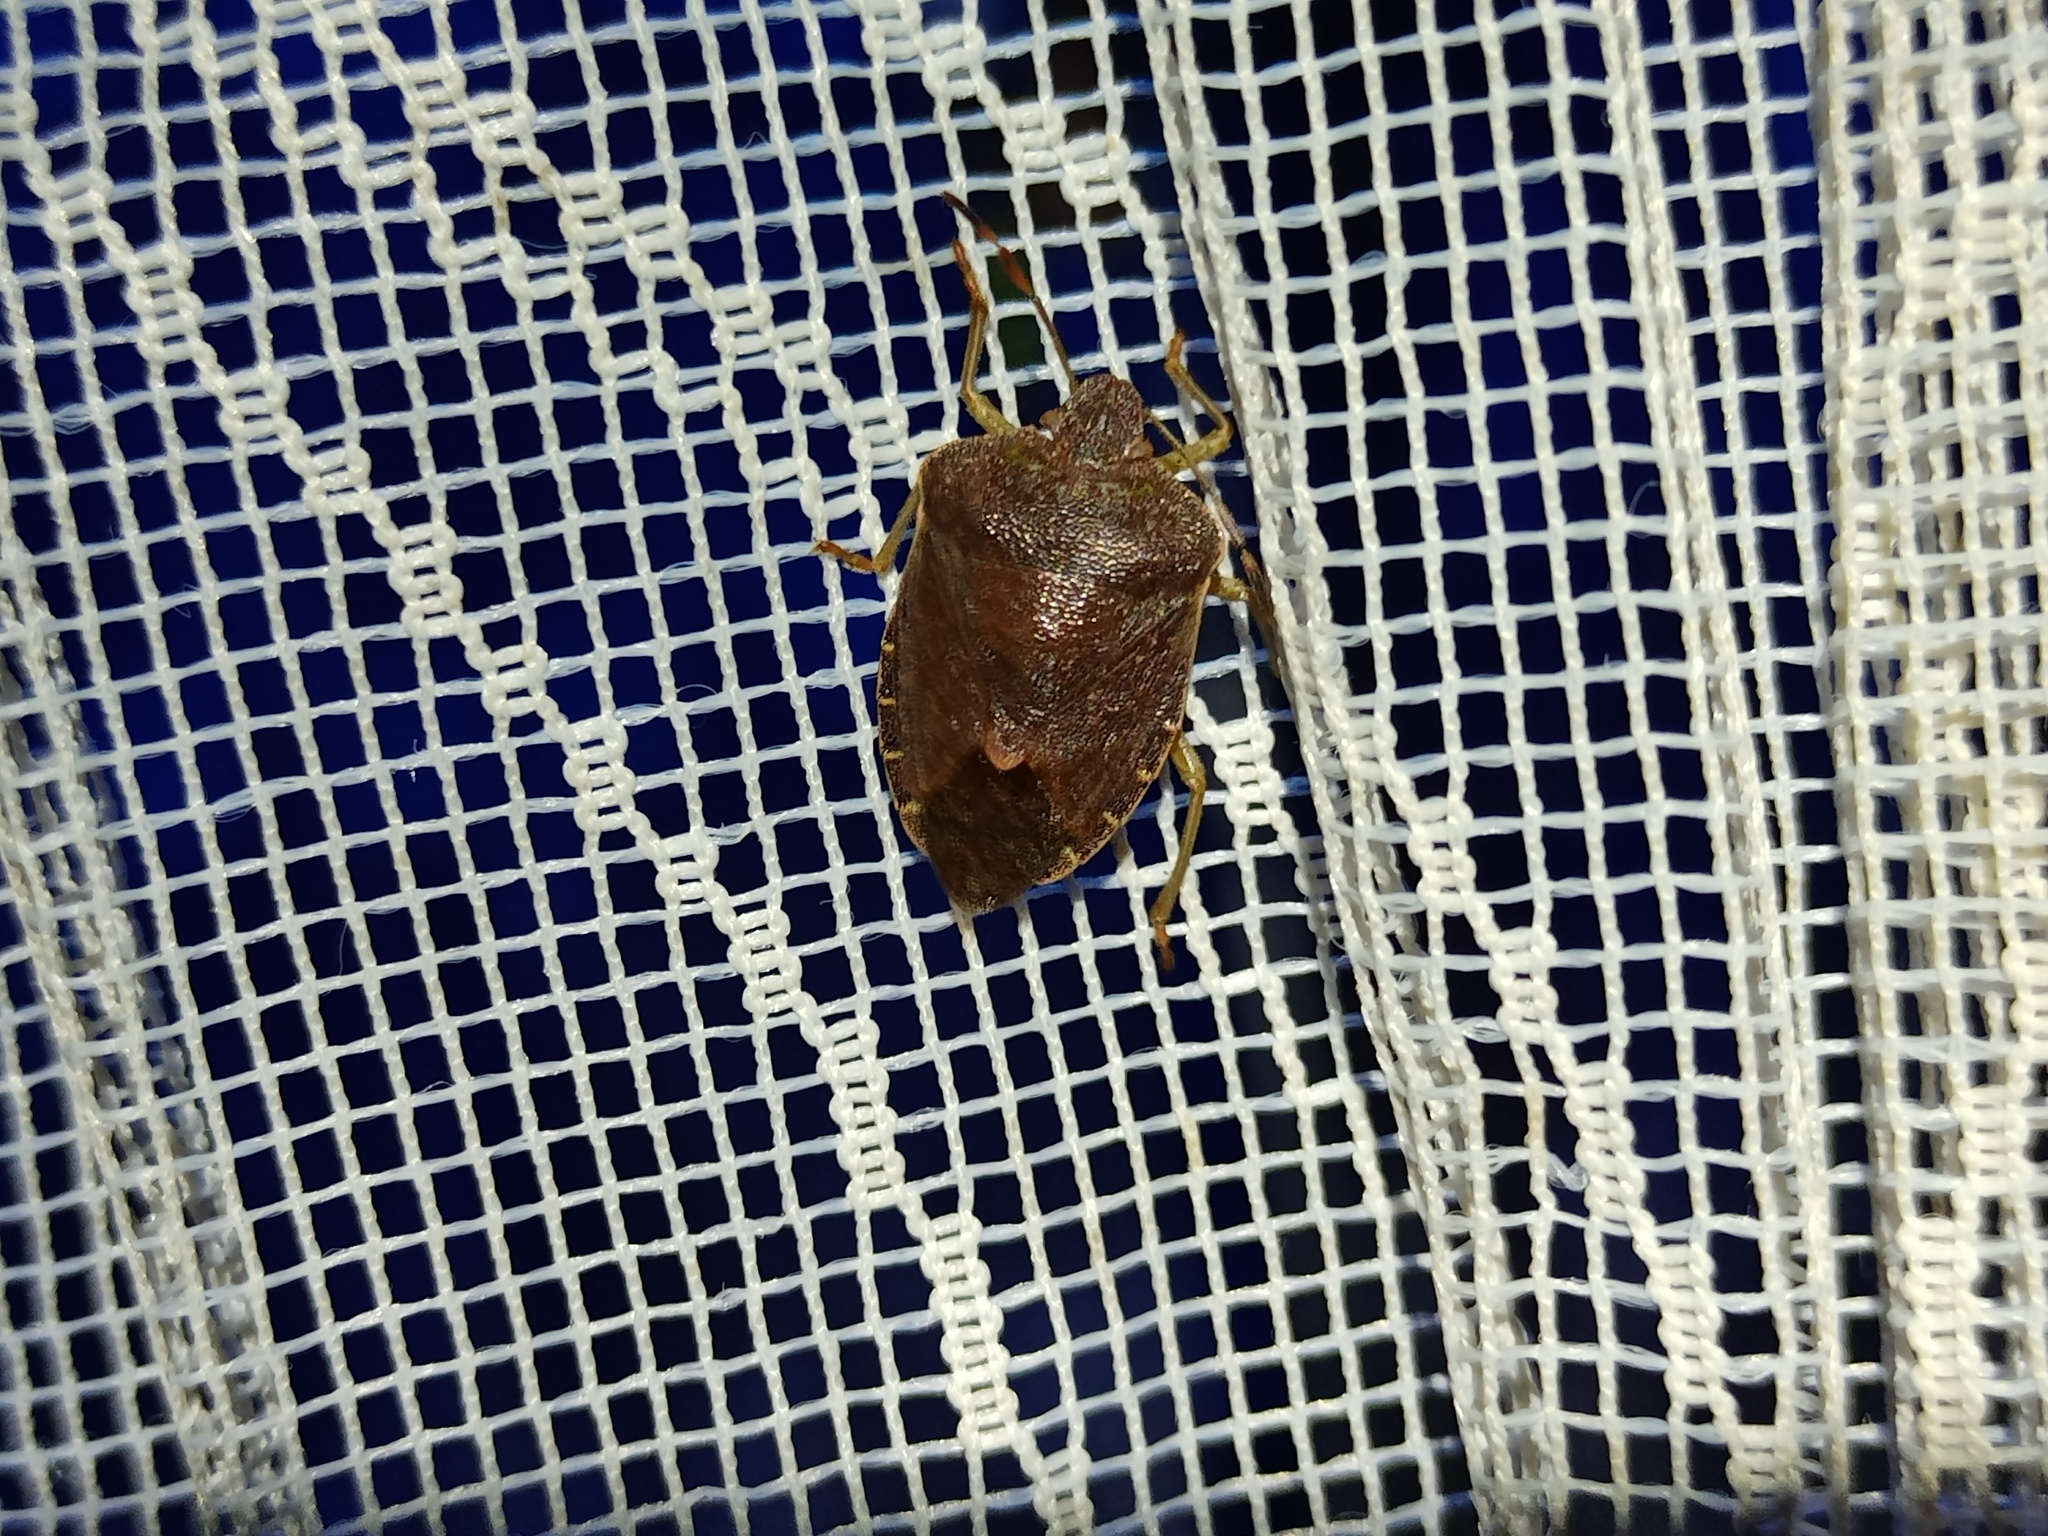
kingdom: Animalia
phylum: Arthropoda
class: Insecta
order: Hemiptera
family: Pentatomidae
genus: Palomena
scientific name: Palomena prasina
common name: Green shieldbug
